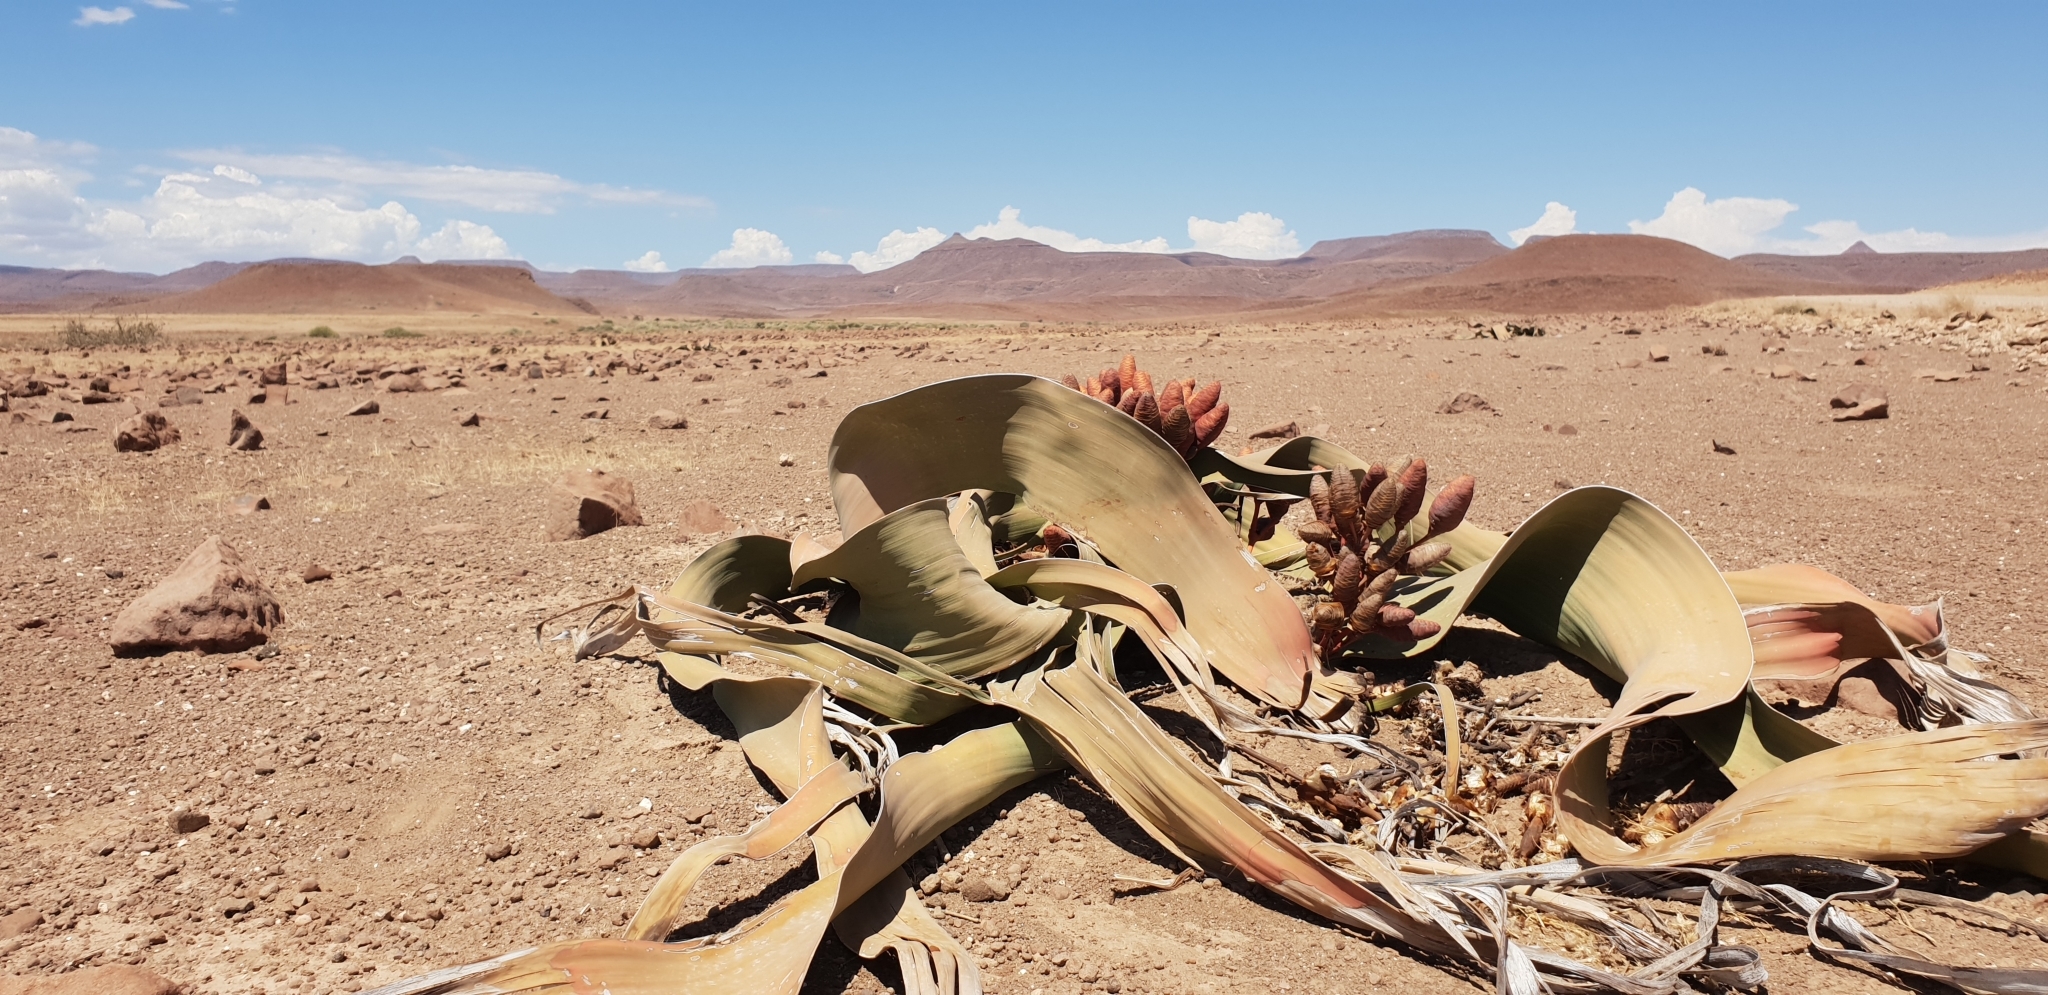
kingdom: Plantae
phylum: Tracheophyta
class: Gnetopsida
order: Welwitschiales
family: Welwitschiaceae
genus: Welwitschia
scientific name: Welwitschia mirabilis
